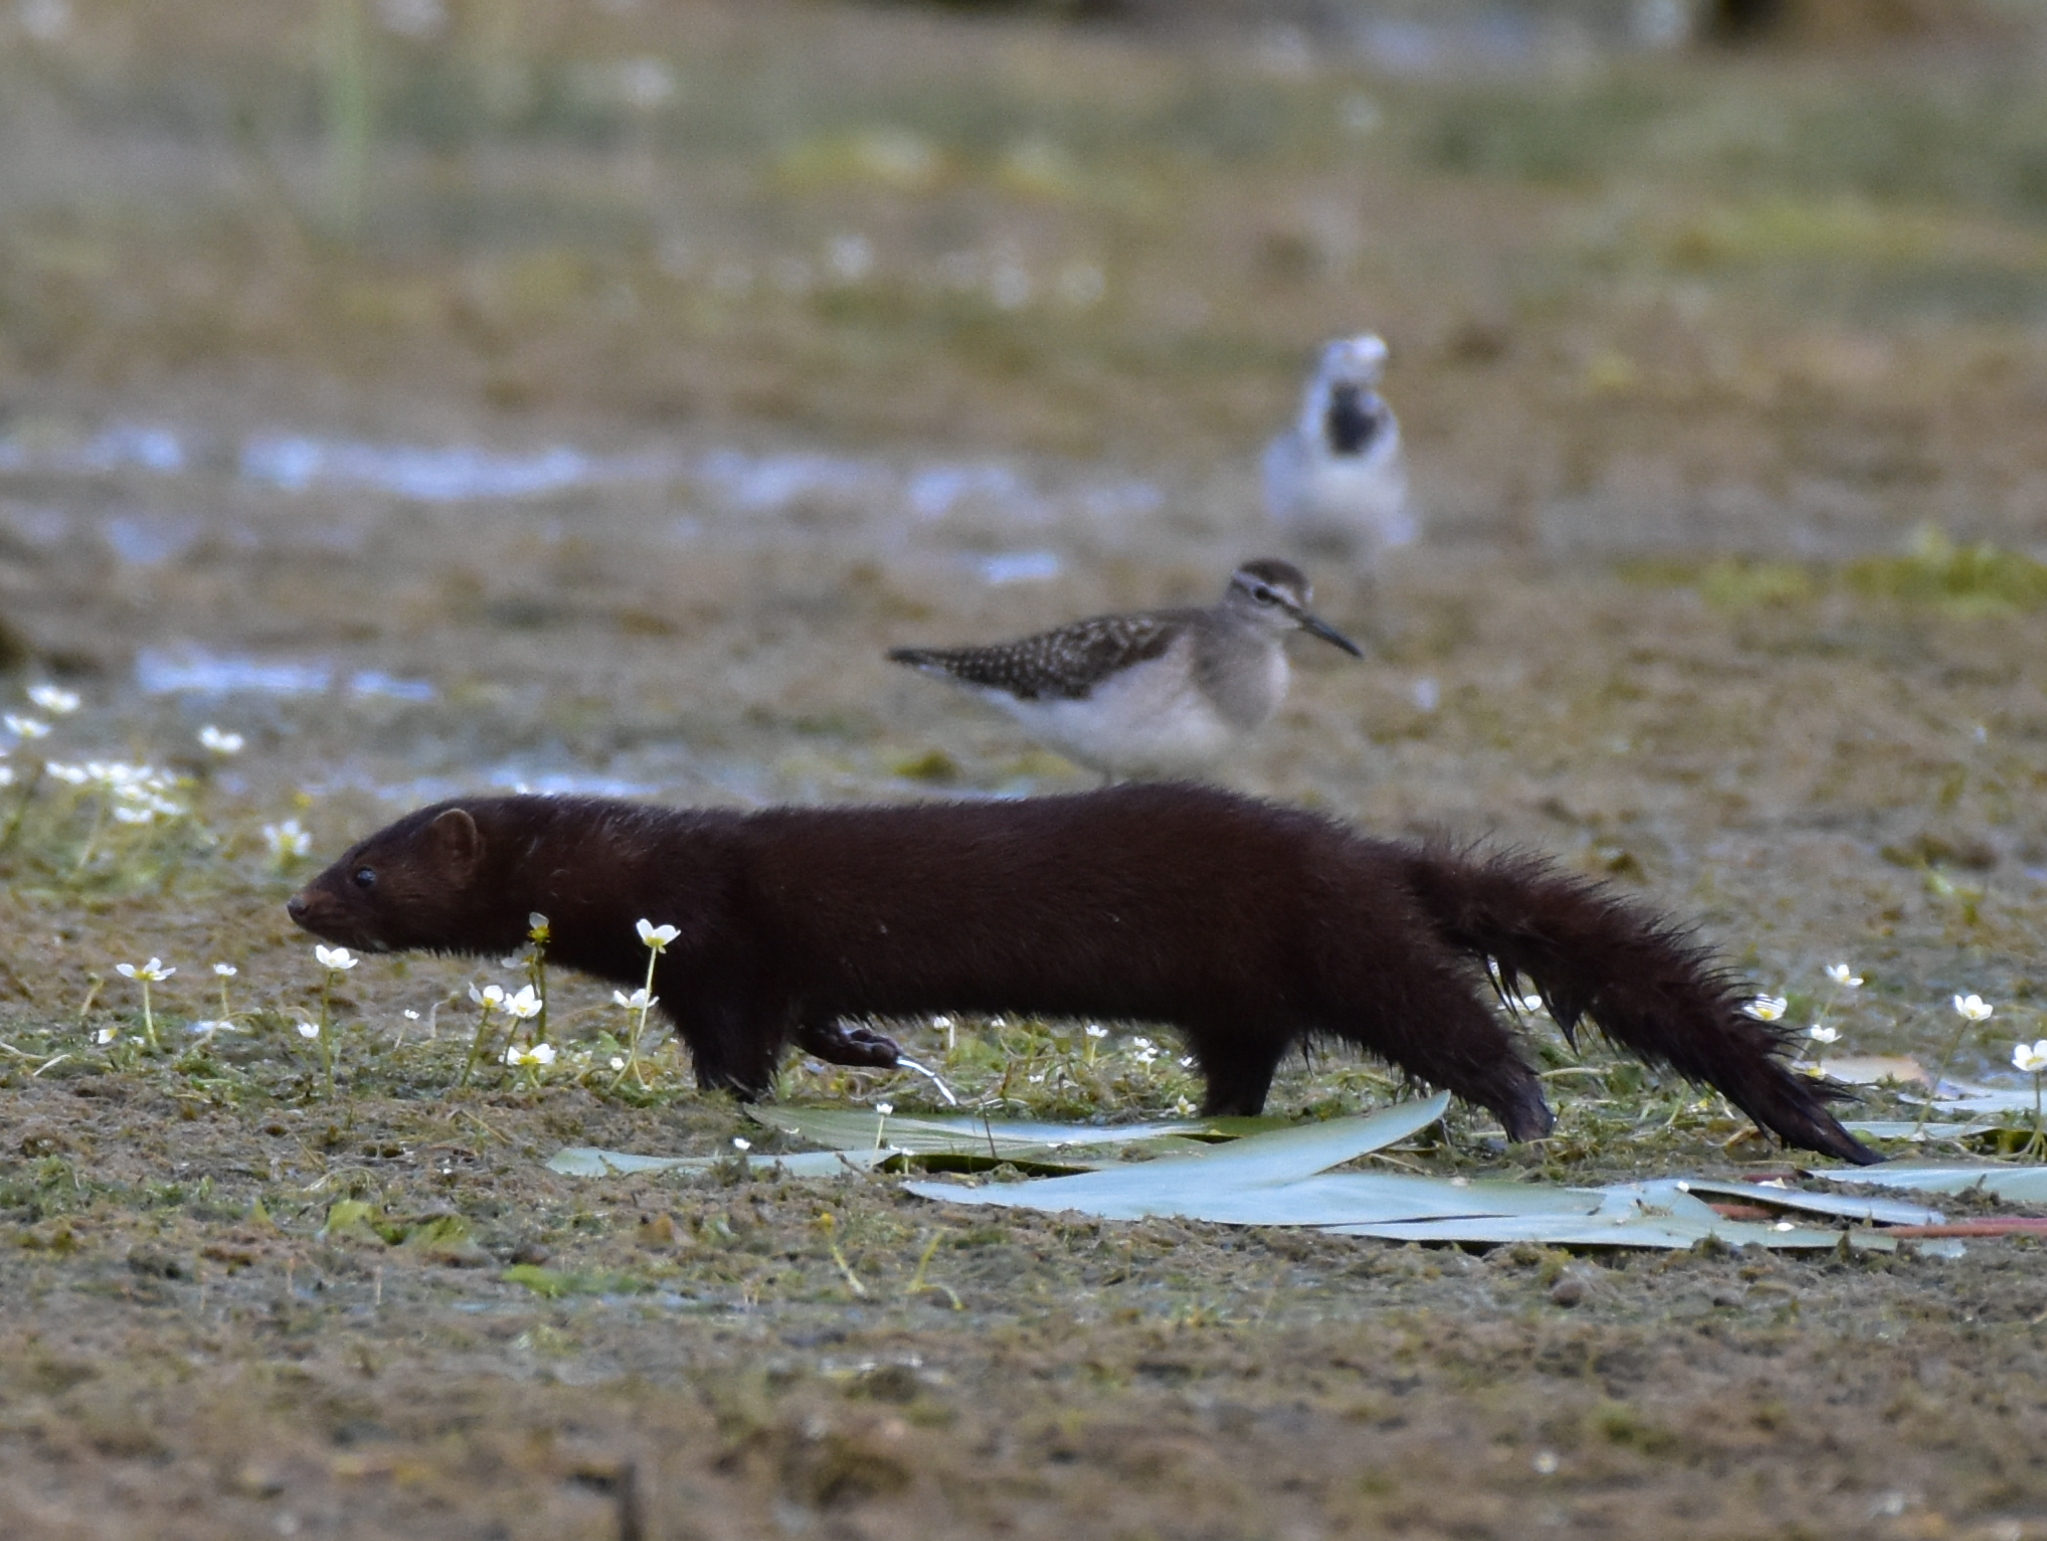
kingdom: Animalia
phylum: Chordata
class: Mammalia
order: Carnivora
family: Mustelidae
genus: Mustela
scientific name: Mustela
